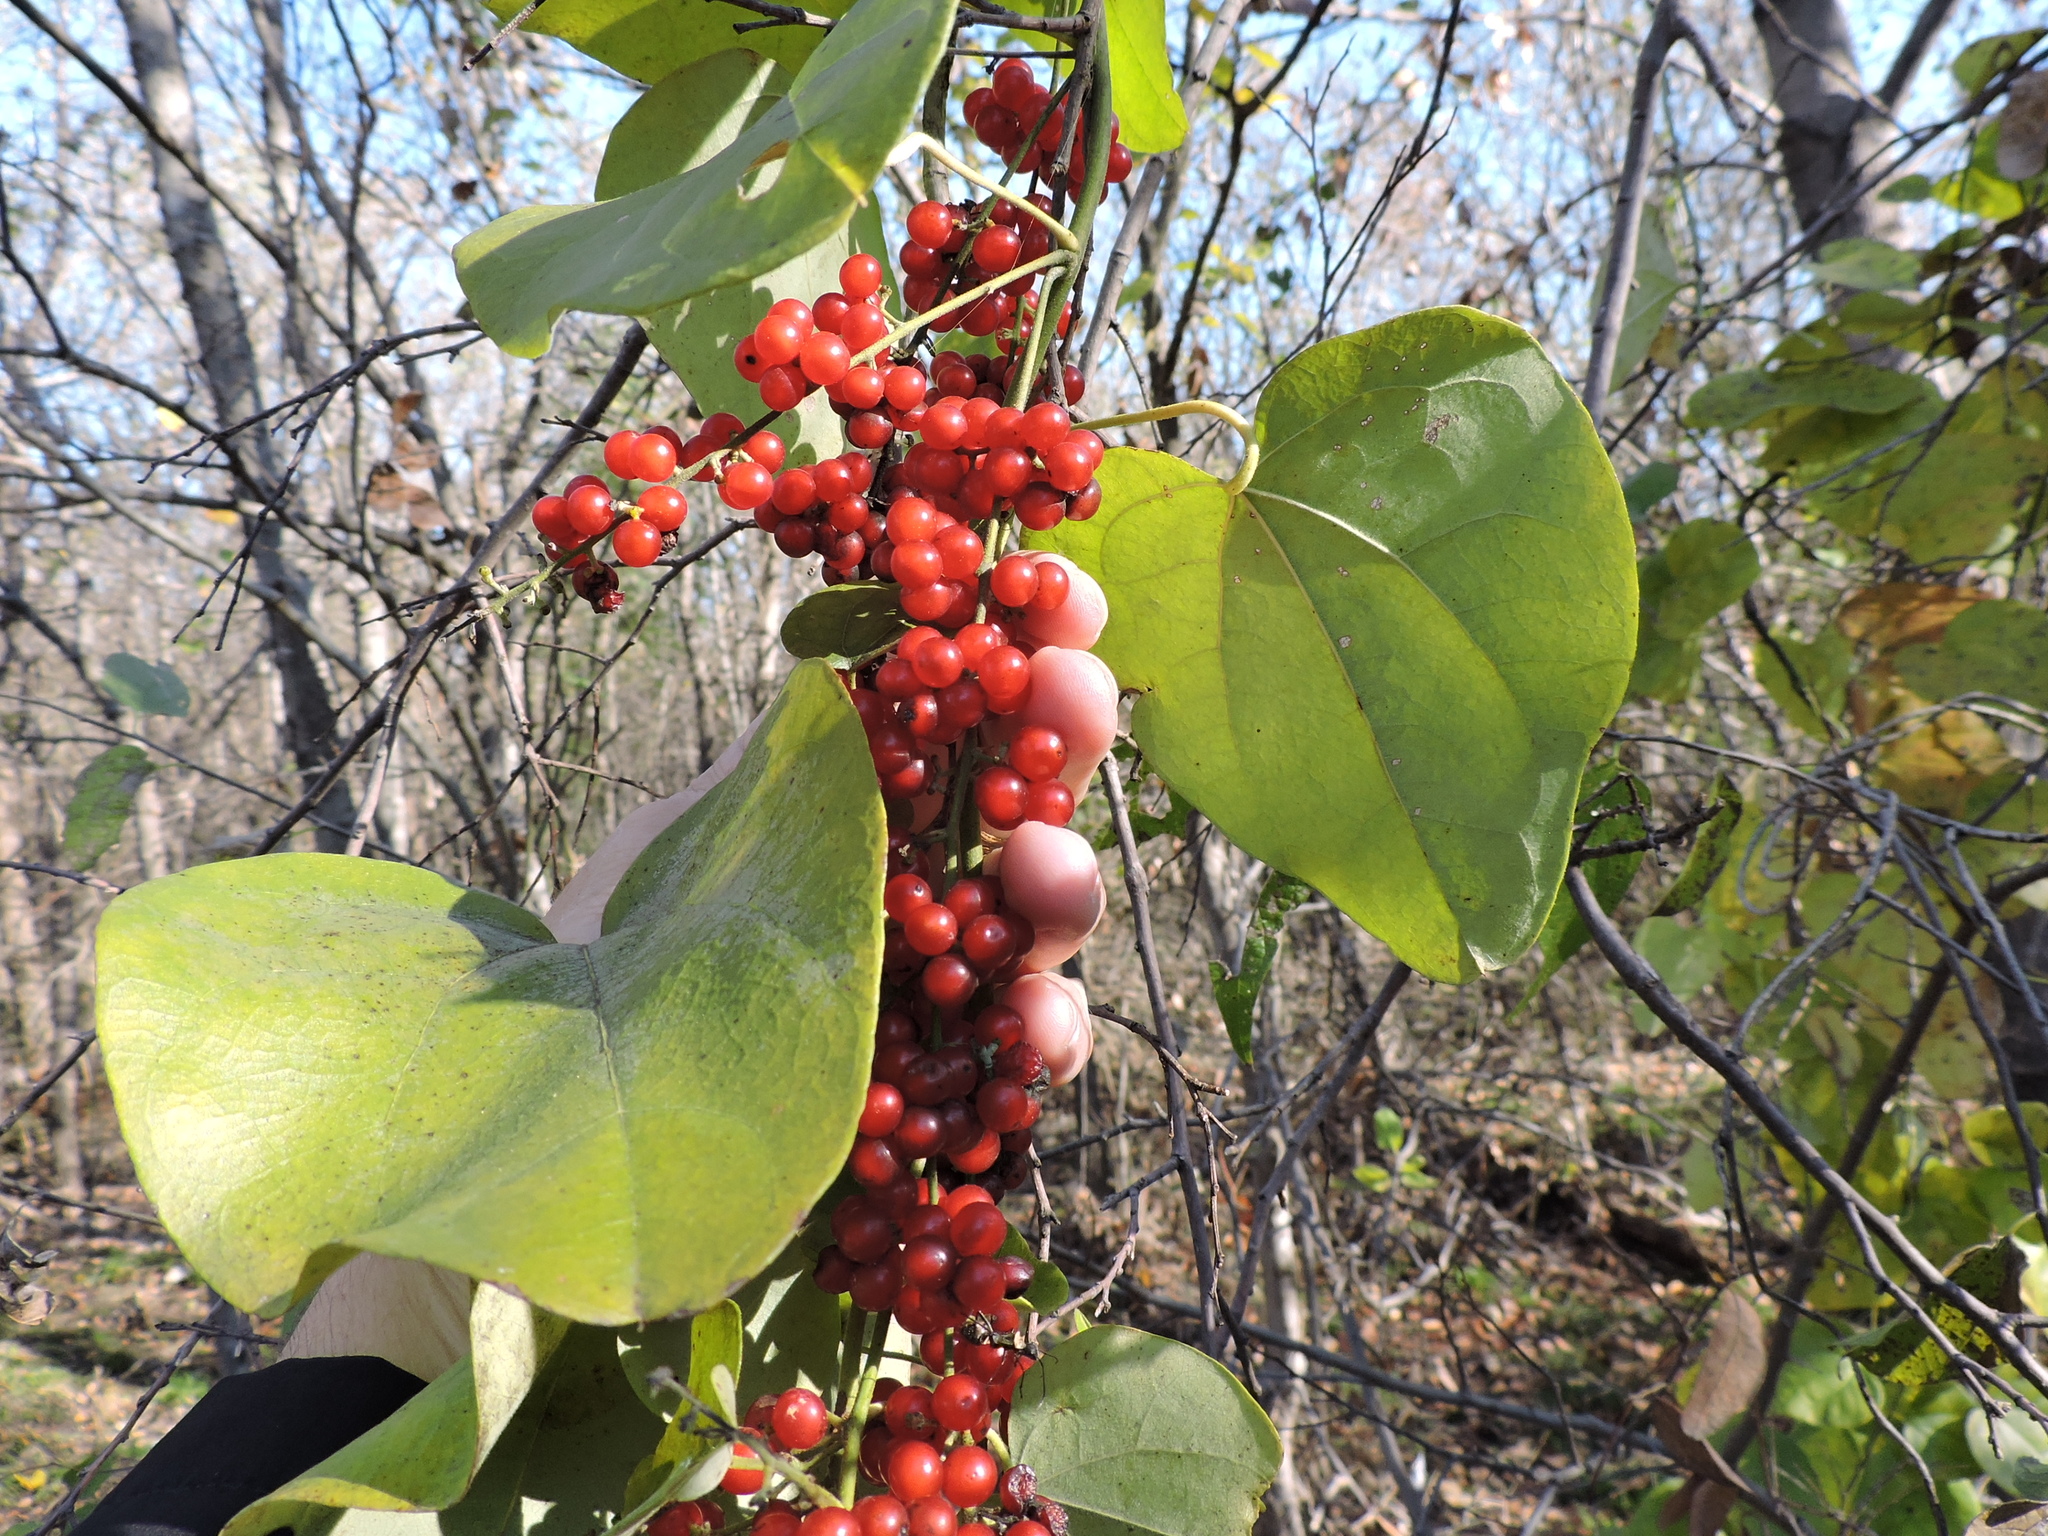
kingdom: Plantae
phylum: Tracheophyta
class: Magnoliopsida
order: Ranunculales
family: Menispermaceae
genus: Cocculus
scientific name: Cocculus carolinus
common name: Carolina moonseed
